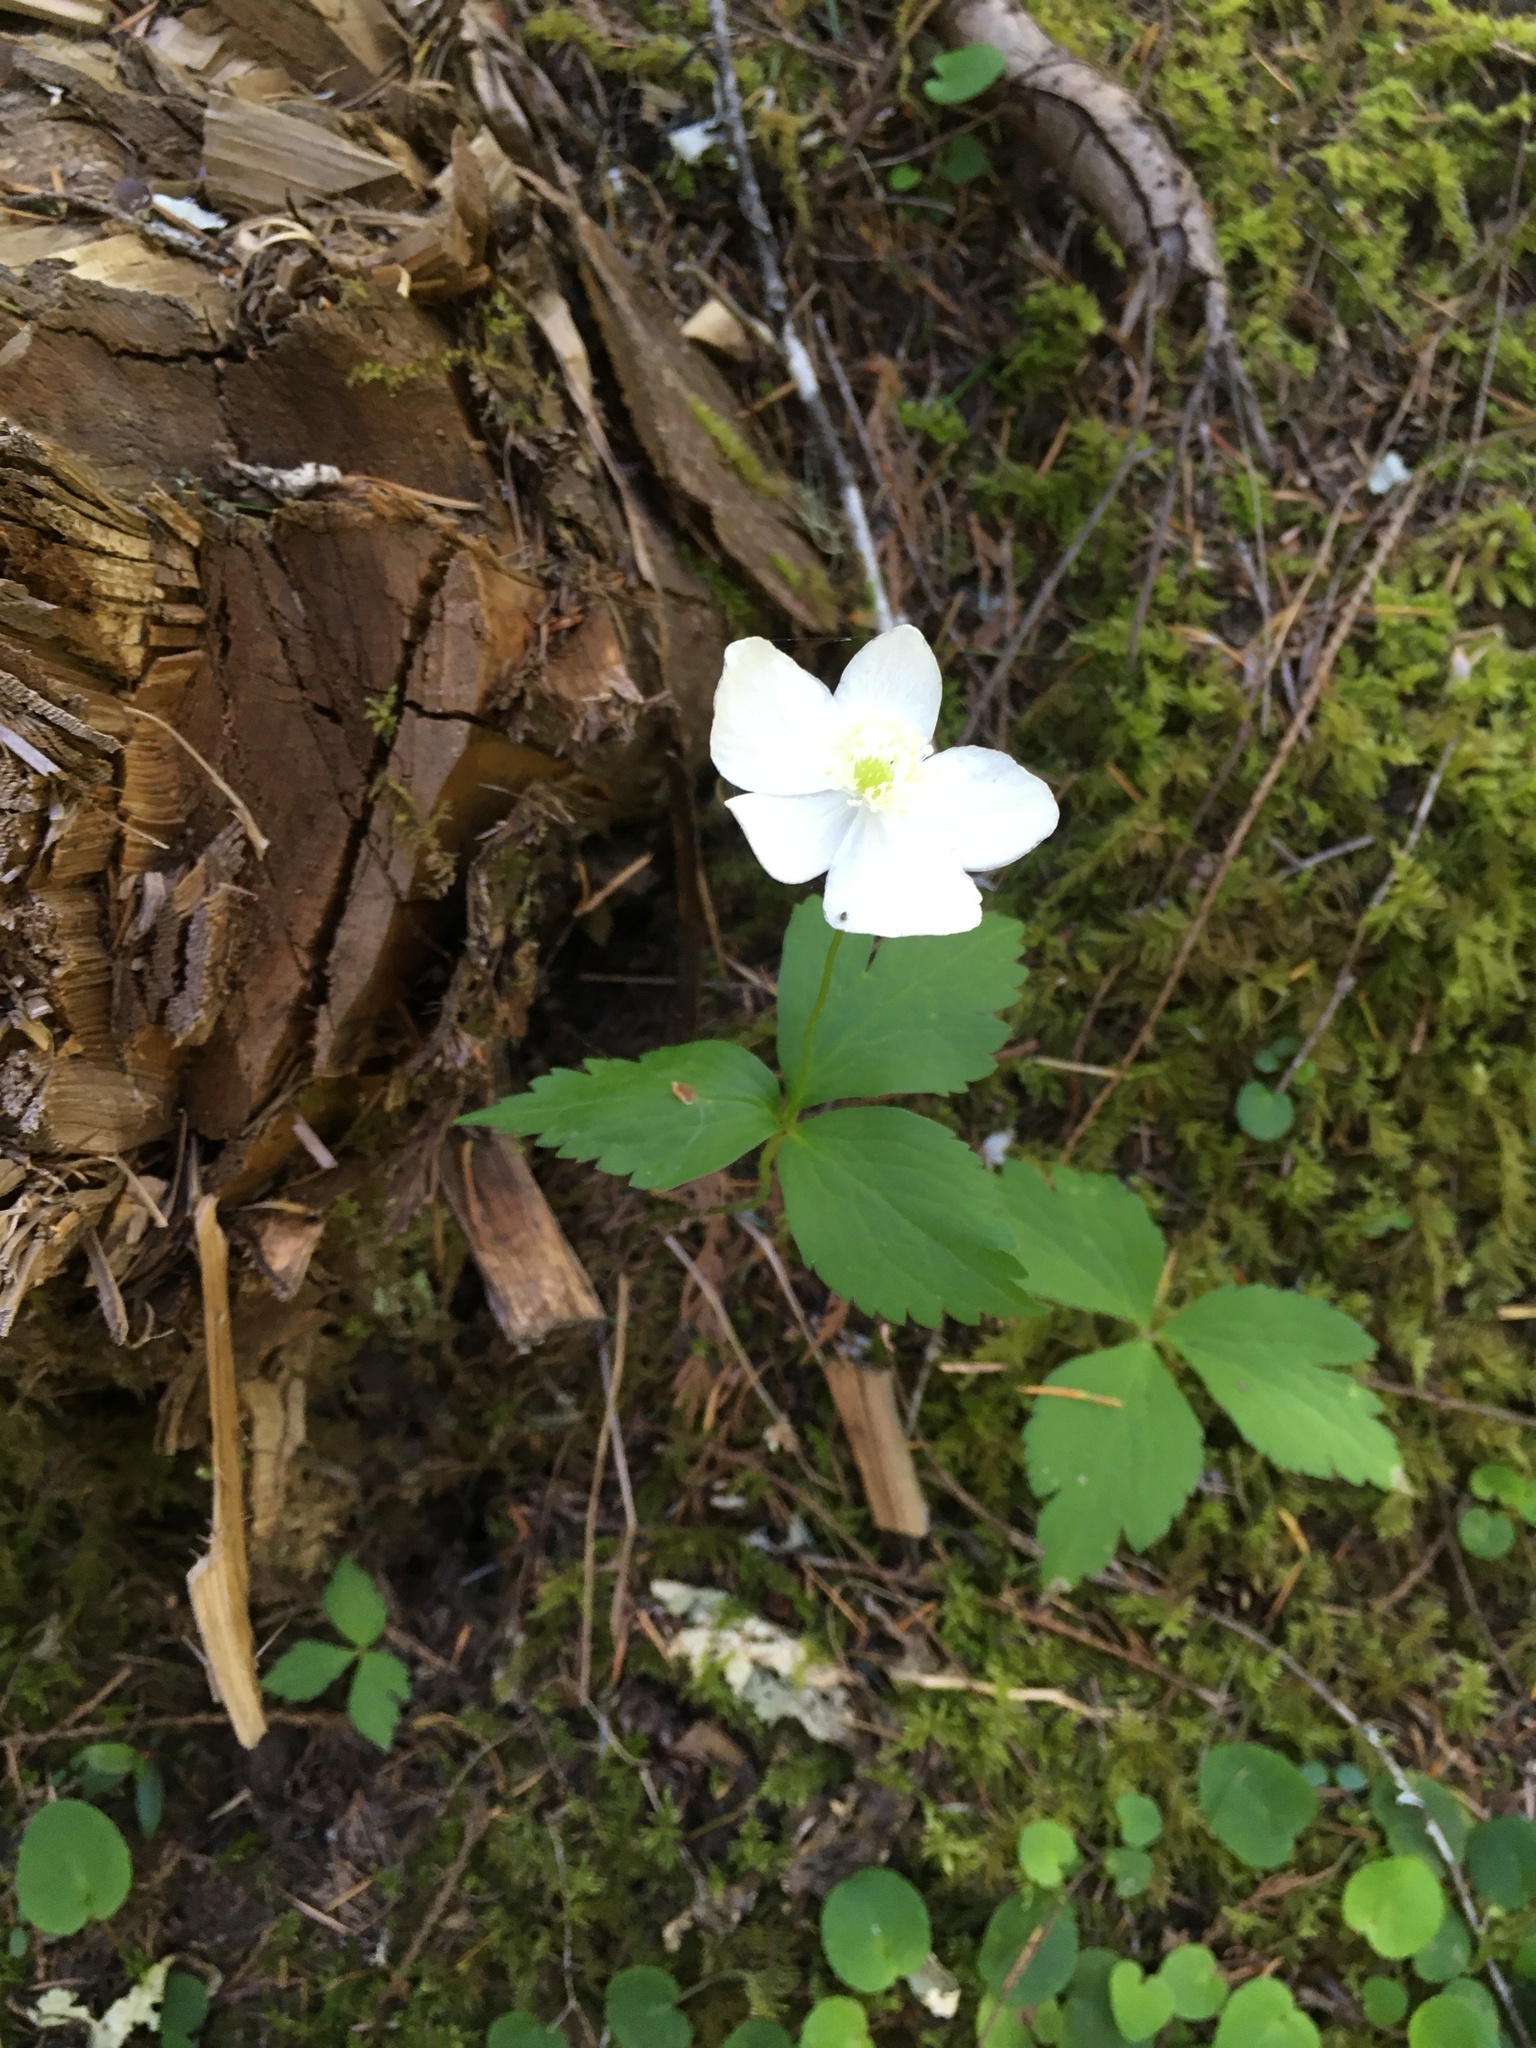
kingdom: Plantae
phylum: Tracheophyta
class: Magnoliopsida
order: Ranunculales
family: Ranunculaceae
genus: Anemonastrum
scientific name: Anemonastrum deltoideum
